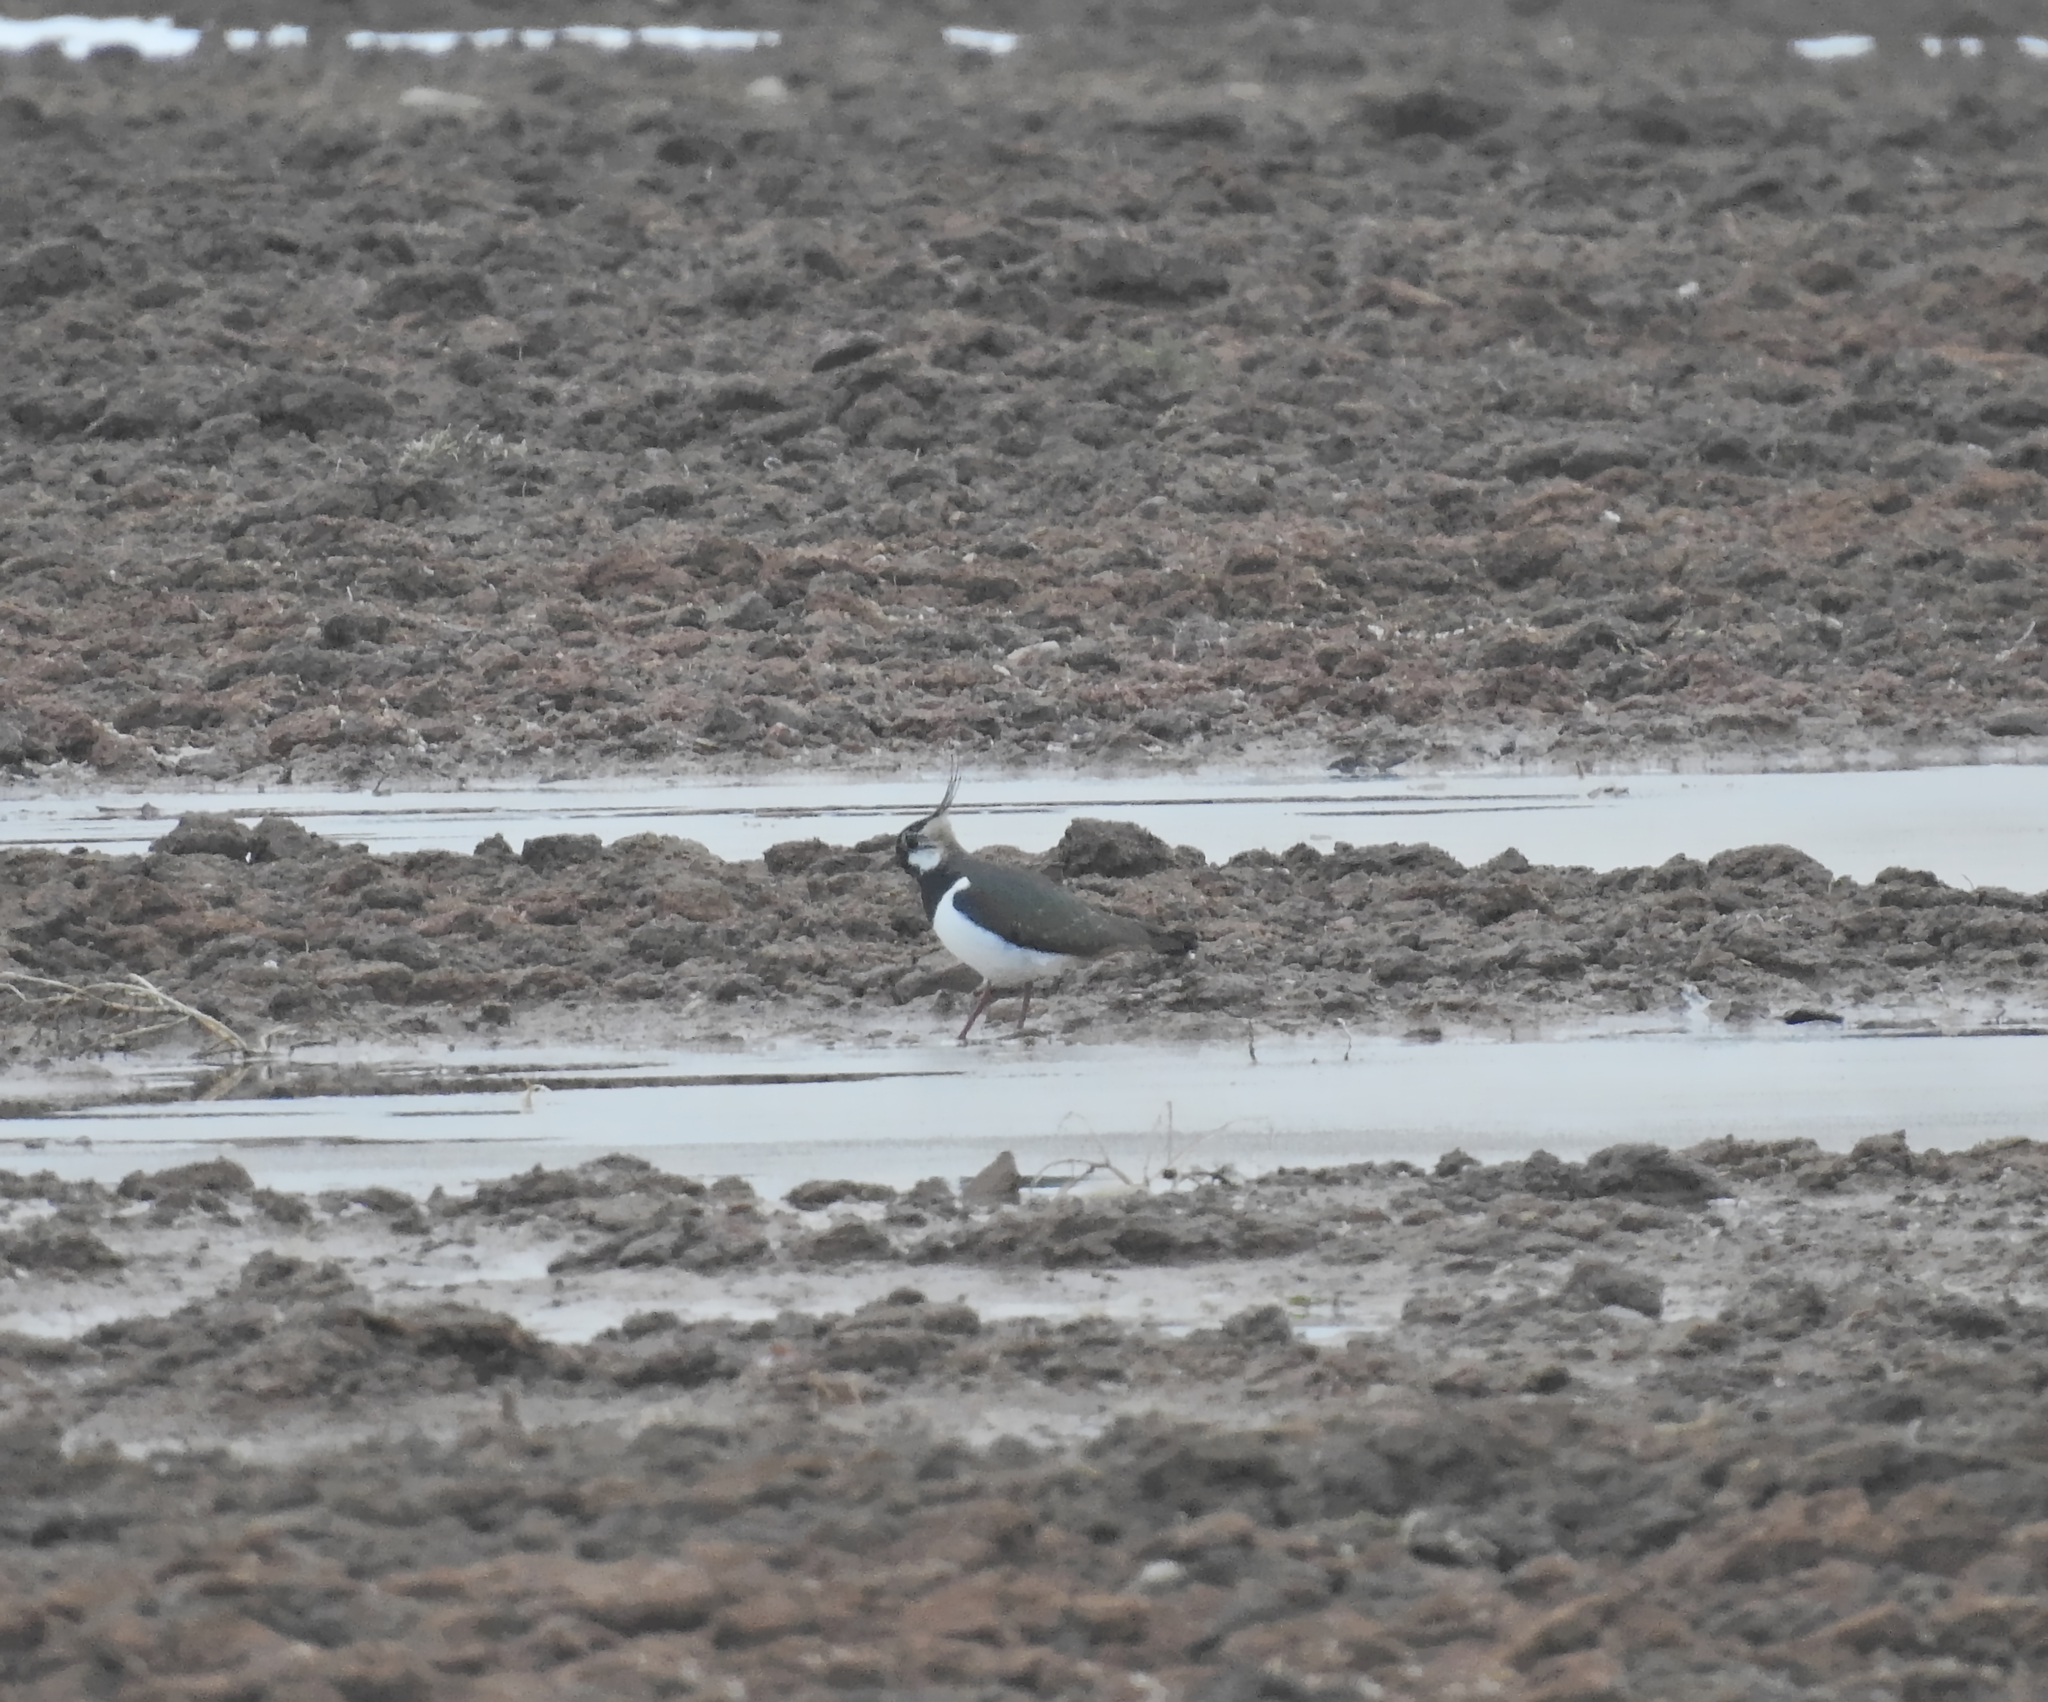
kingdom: Animalia
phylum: Chordata
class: Aves
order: Charadriiformes
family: Charadriidae
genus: Vanellus
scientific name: Vanellus vanellus
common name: Northern lapwing
